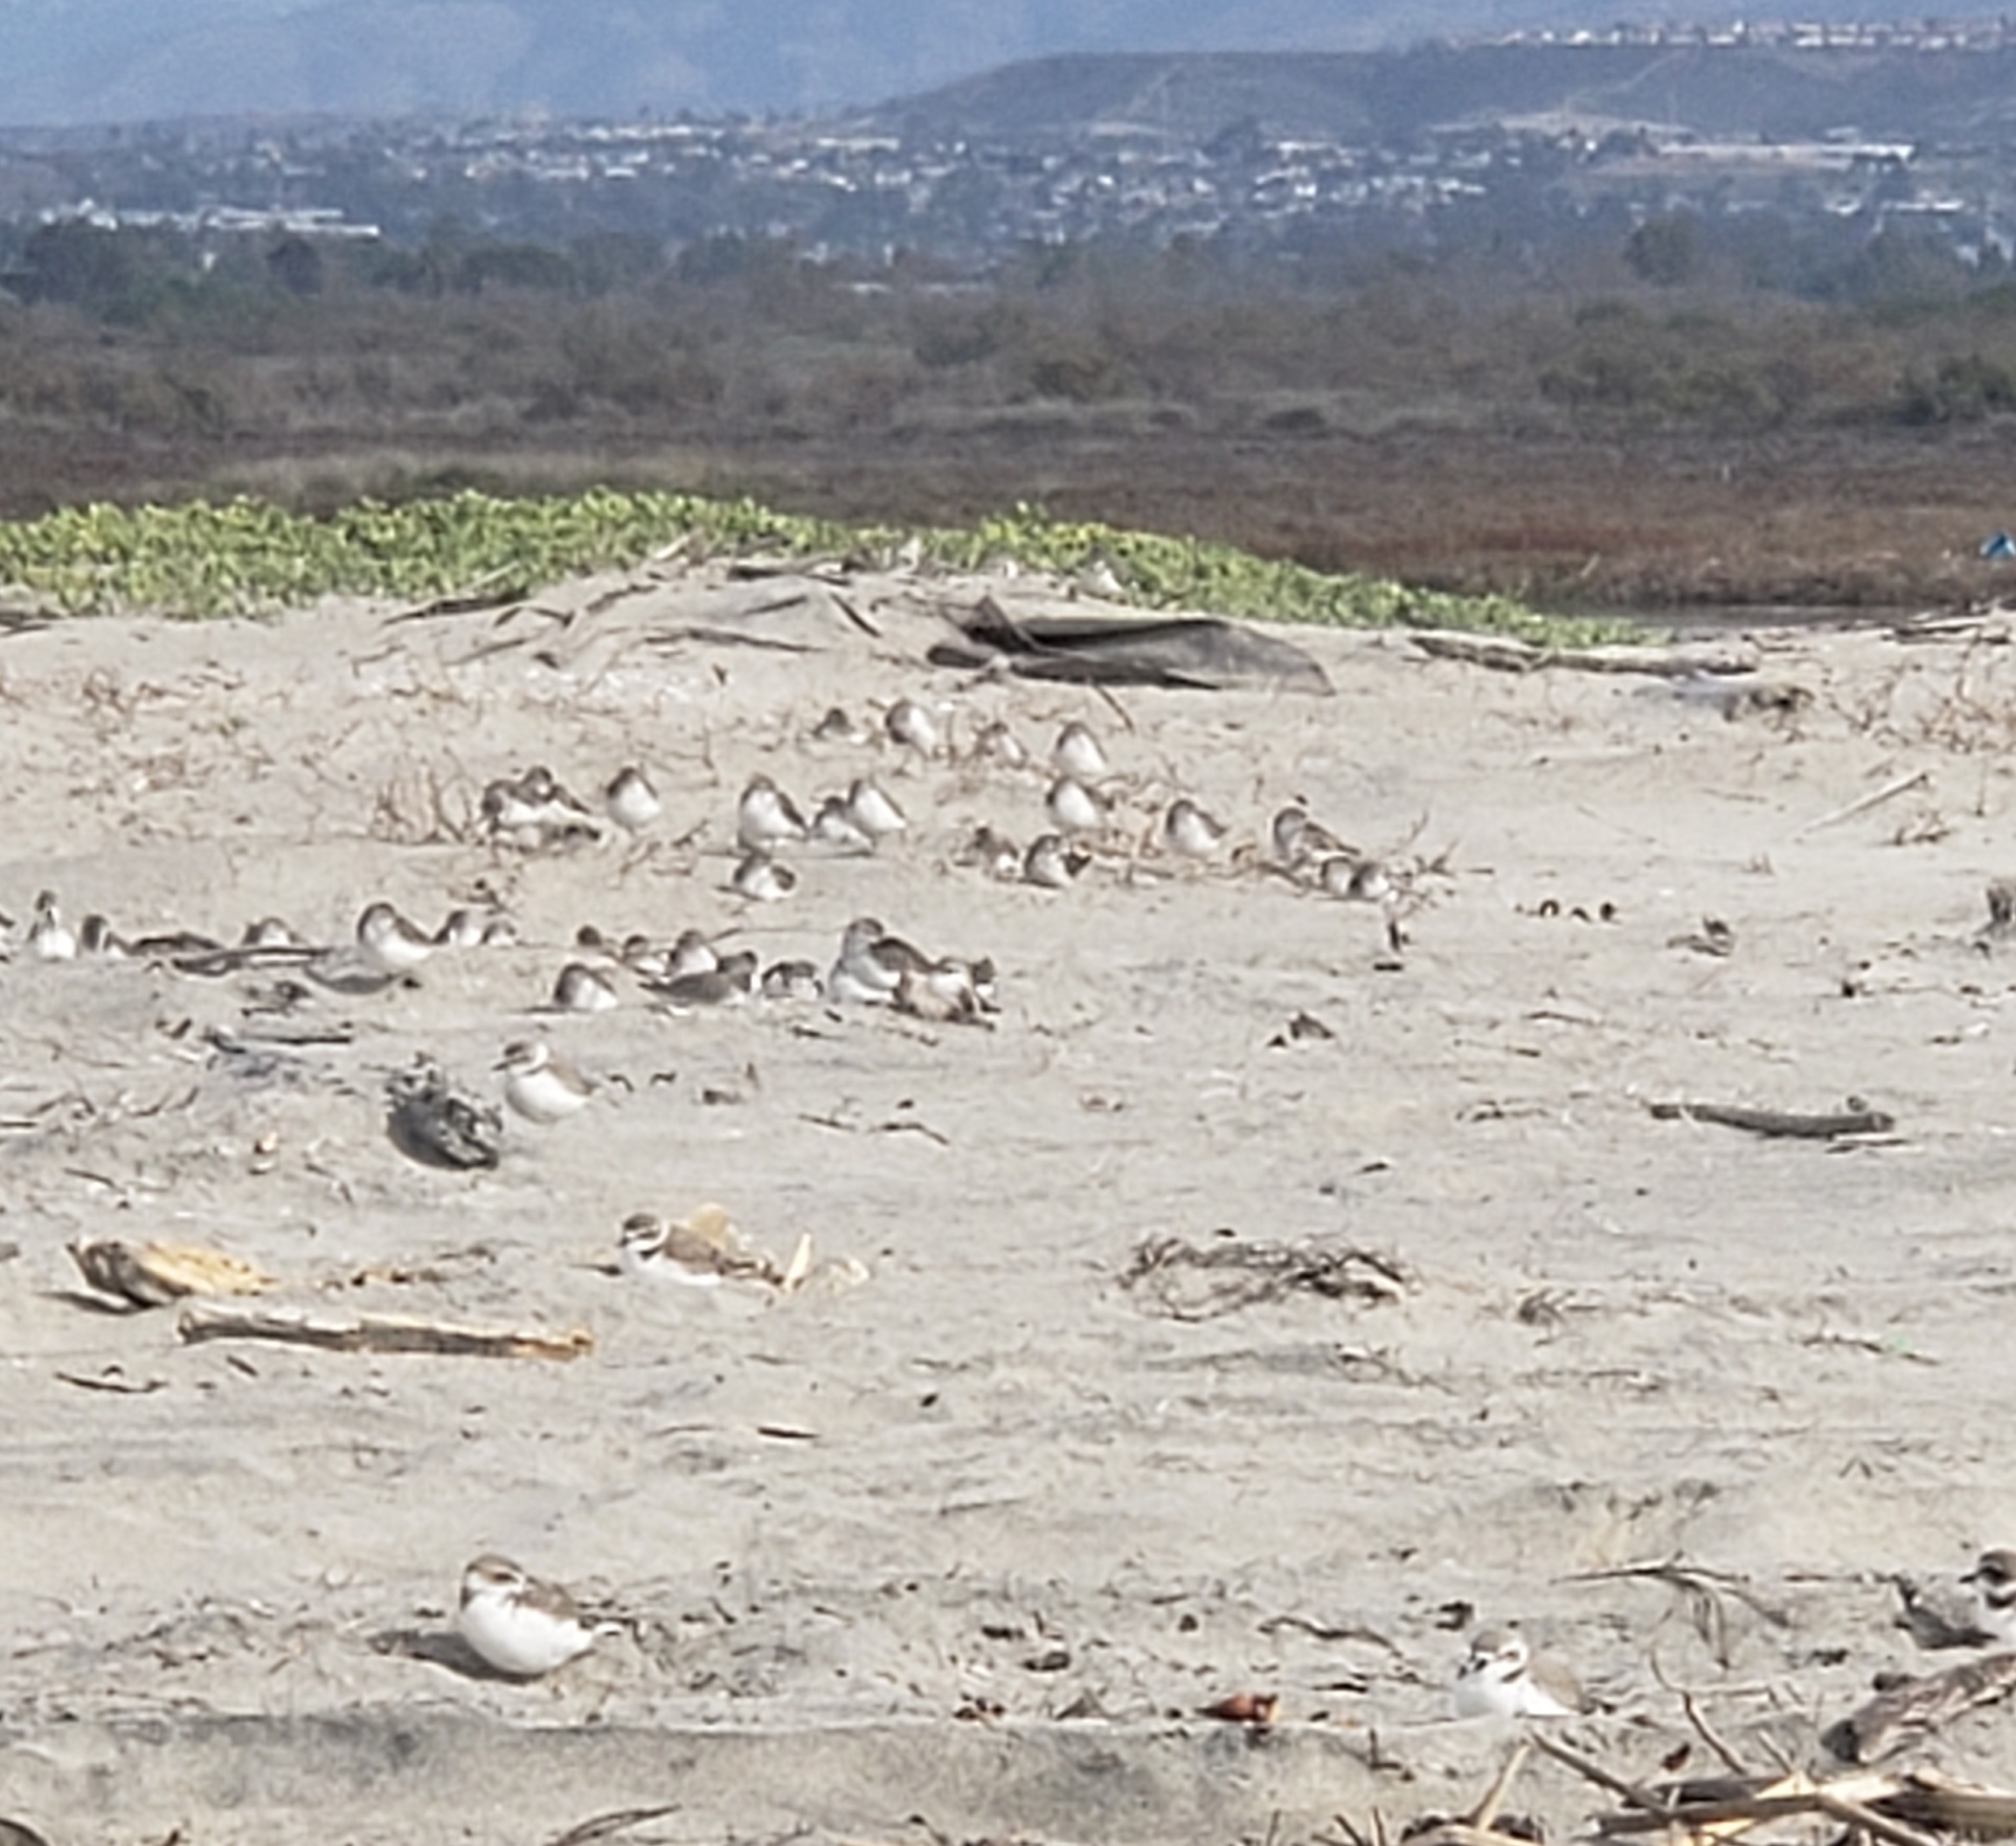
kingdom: Animalia
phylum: Chordata
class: Aves
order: Charadriiformes
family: Charadriidae
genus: Anarhynchus
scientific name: Anarhynchus
